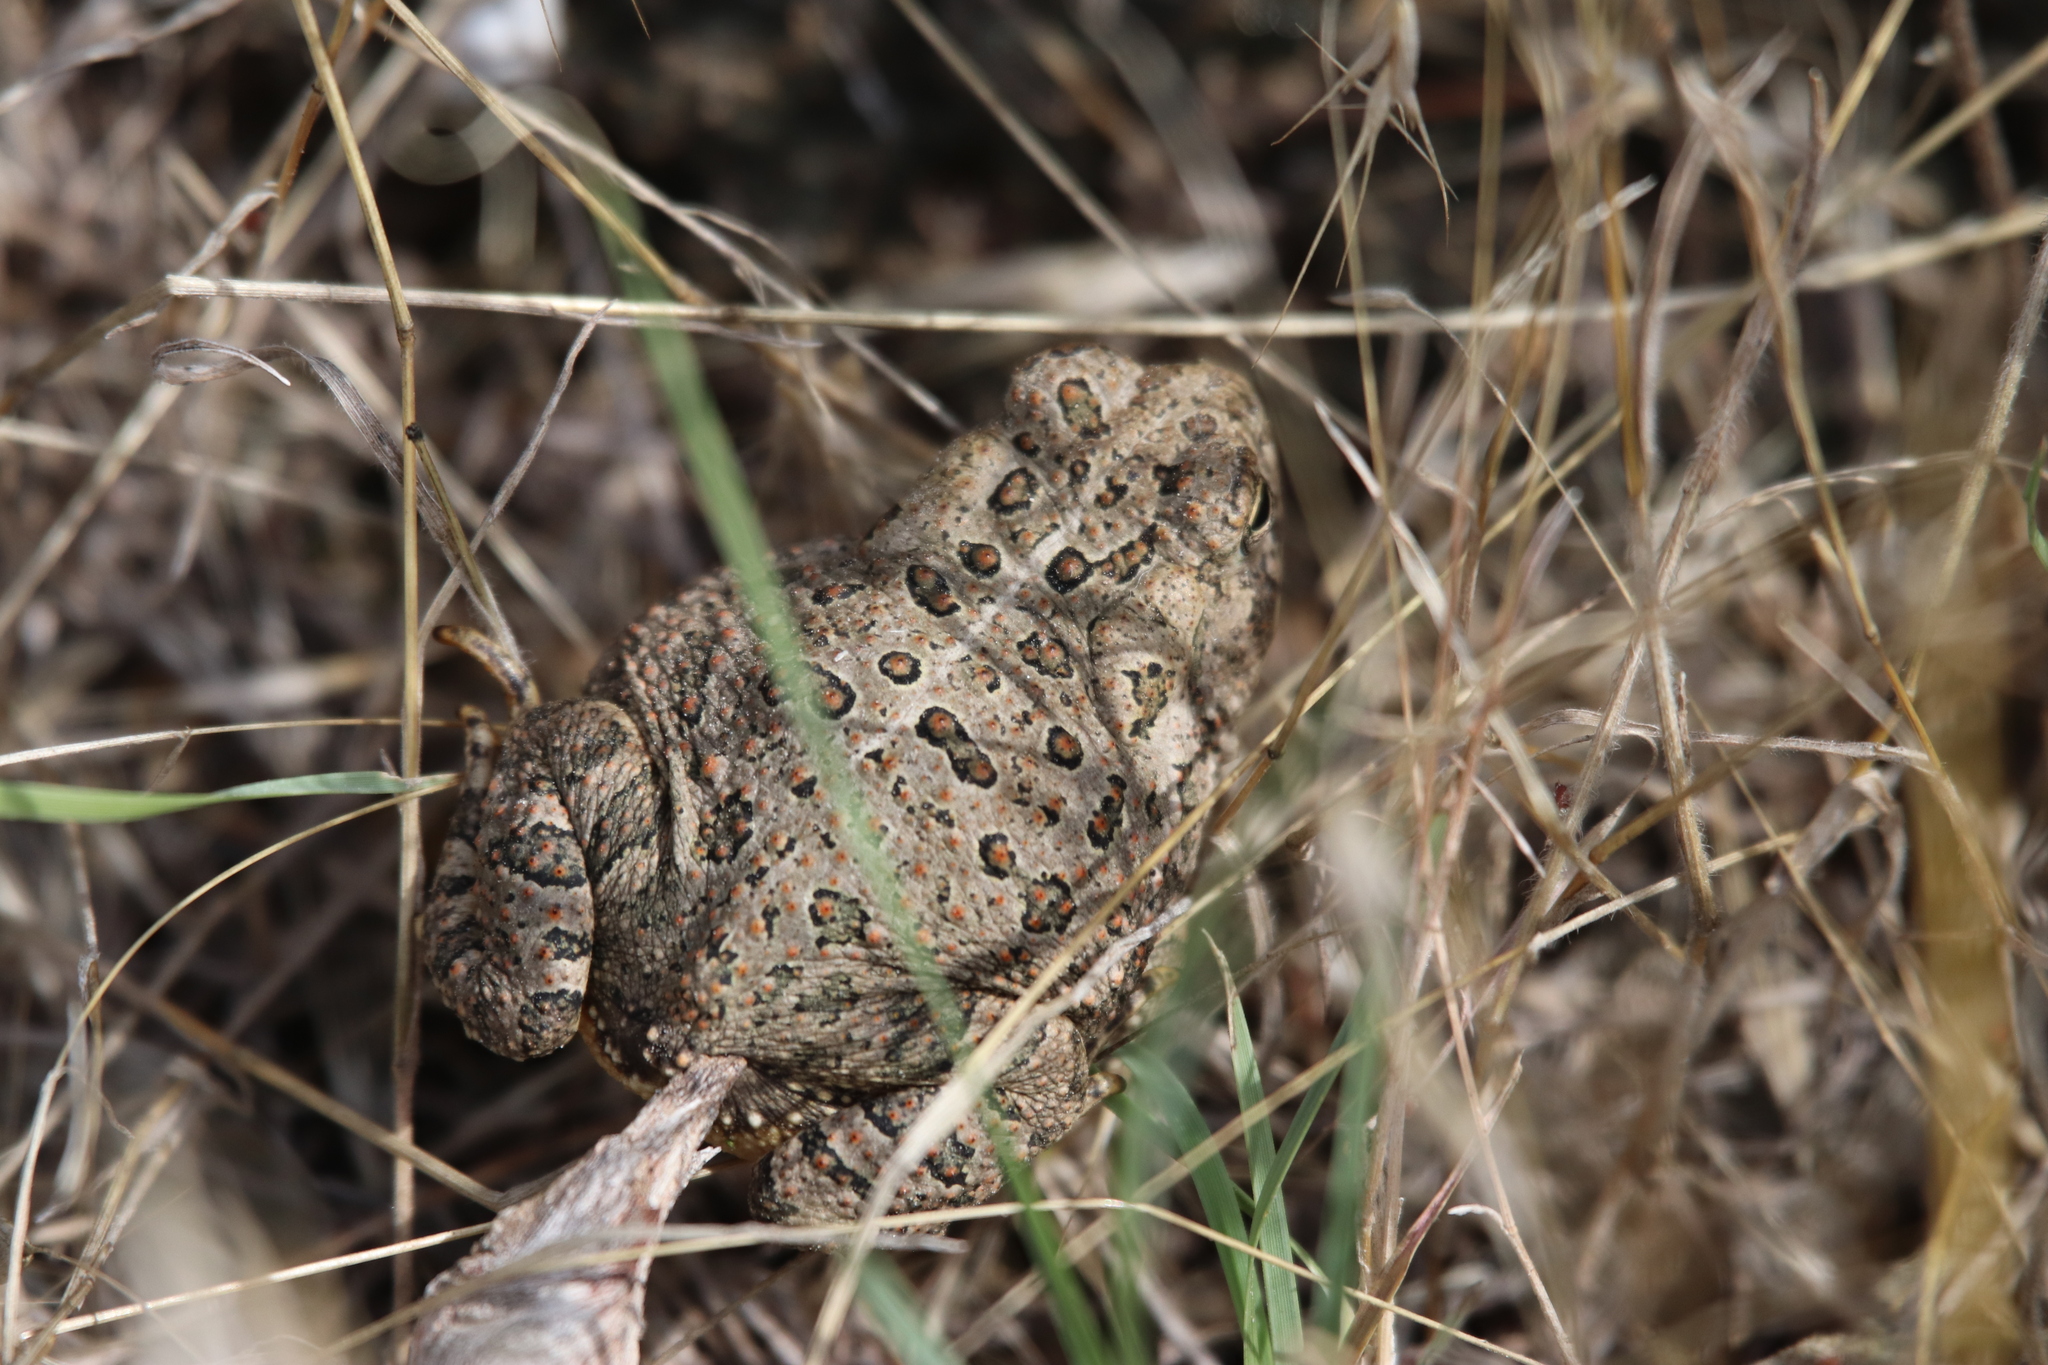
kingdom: Animalia
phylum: Chordata
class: Amphibia
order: Anura
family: Bufonidae
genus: Anaxyrus
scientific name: Anaxyrus woodhousii
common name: Woodhouse's toad
